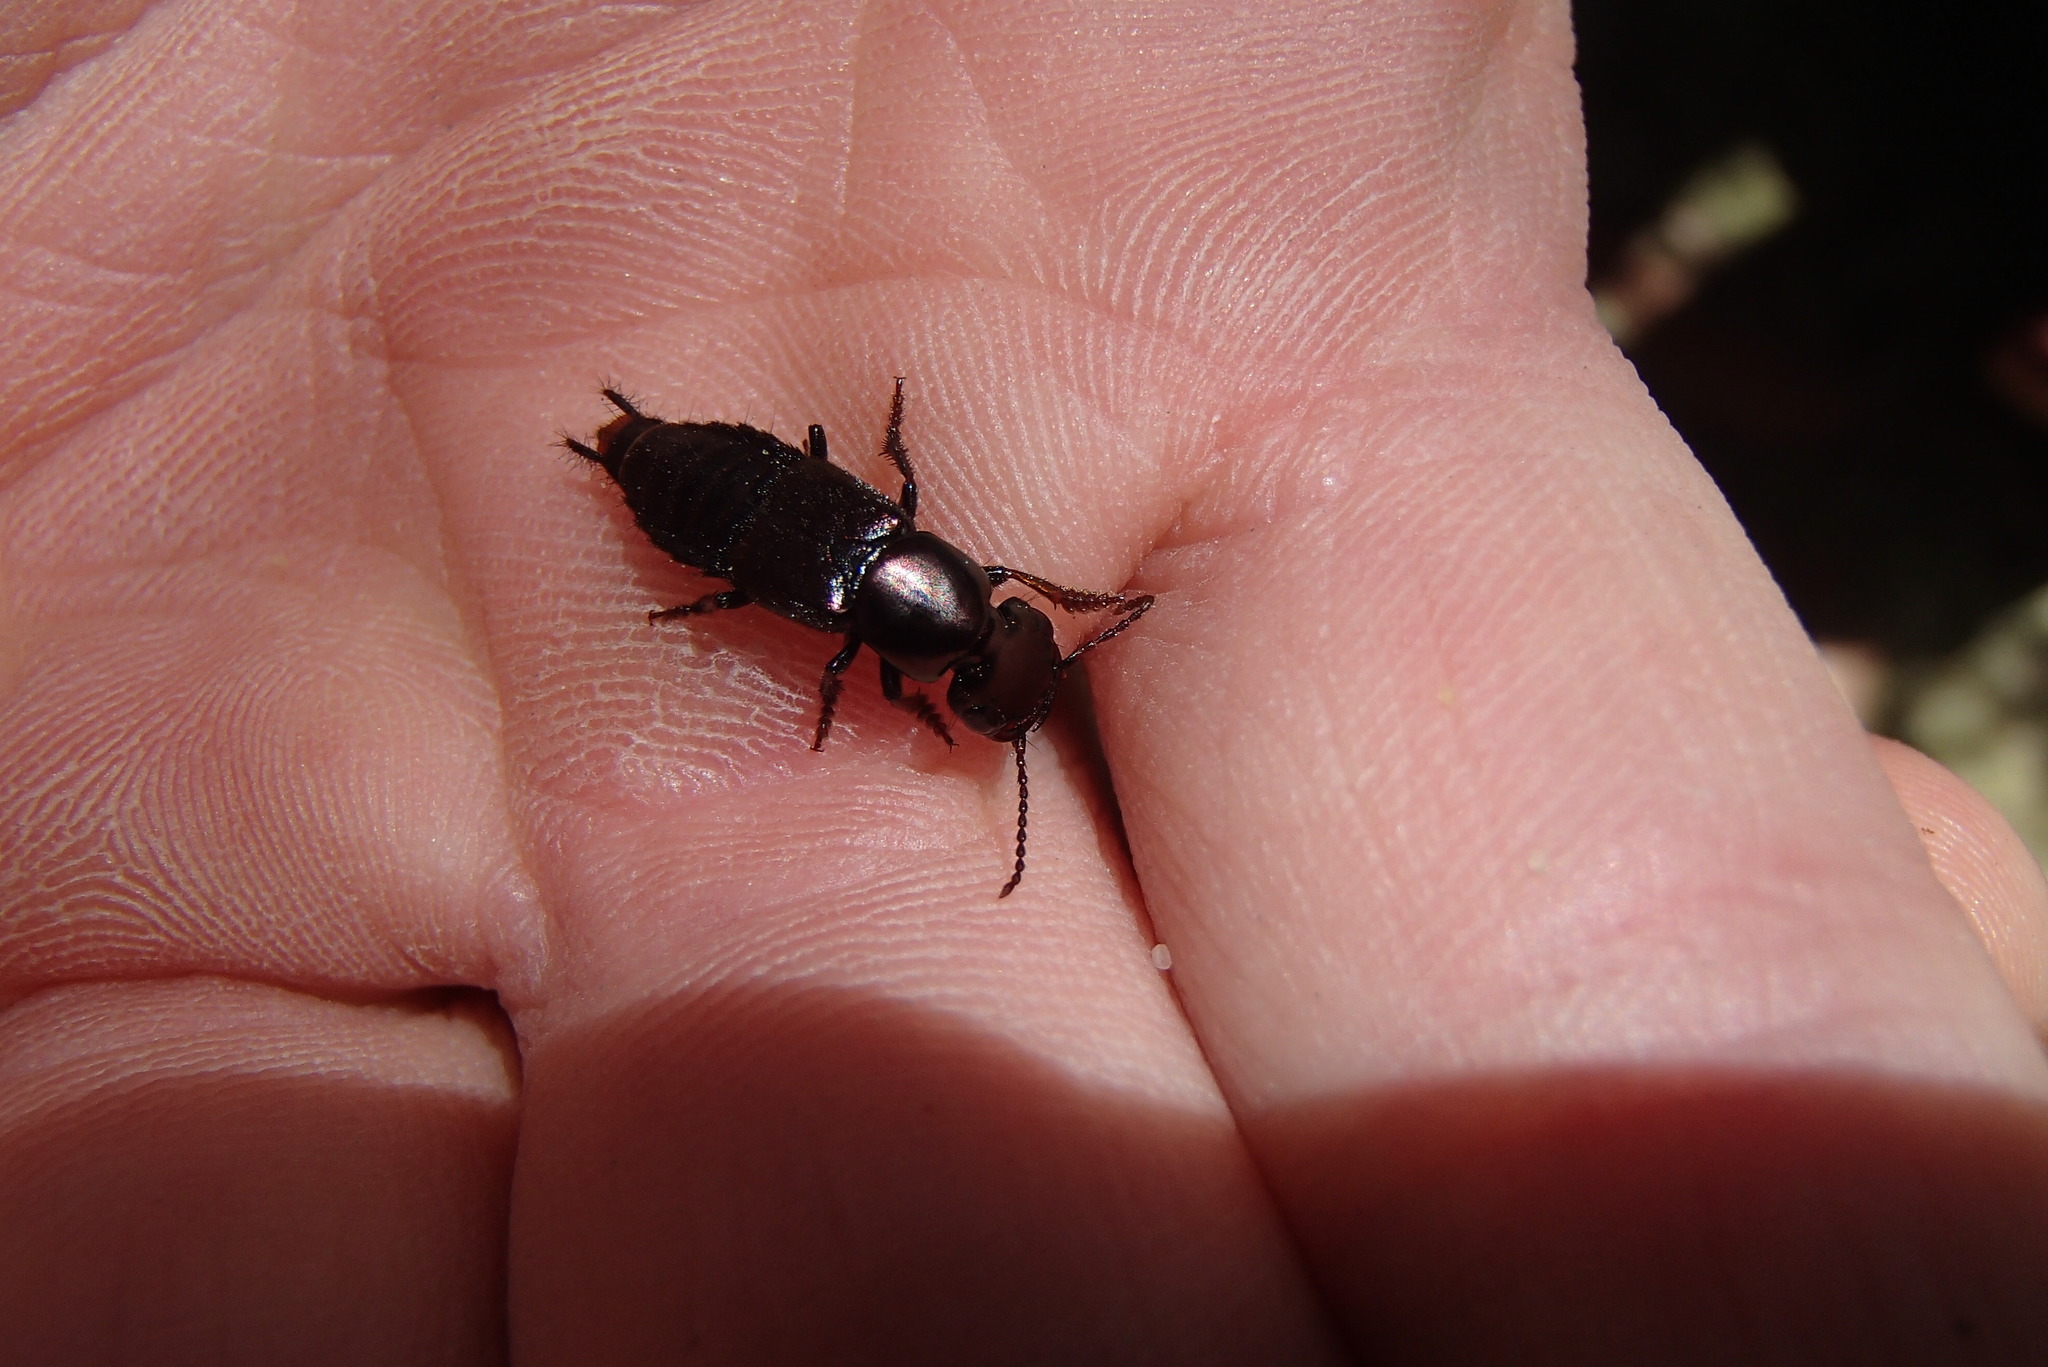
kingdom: Animalia
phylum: Arthropoda
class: Insecta
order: Coleoptera
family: Staphylinidae
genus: Antimerus
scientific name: Antimerus punctipennis
